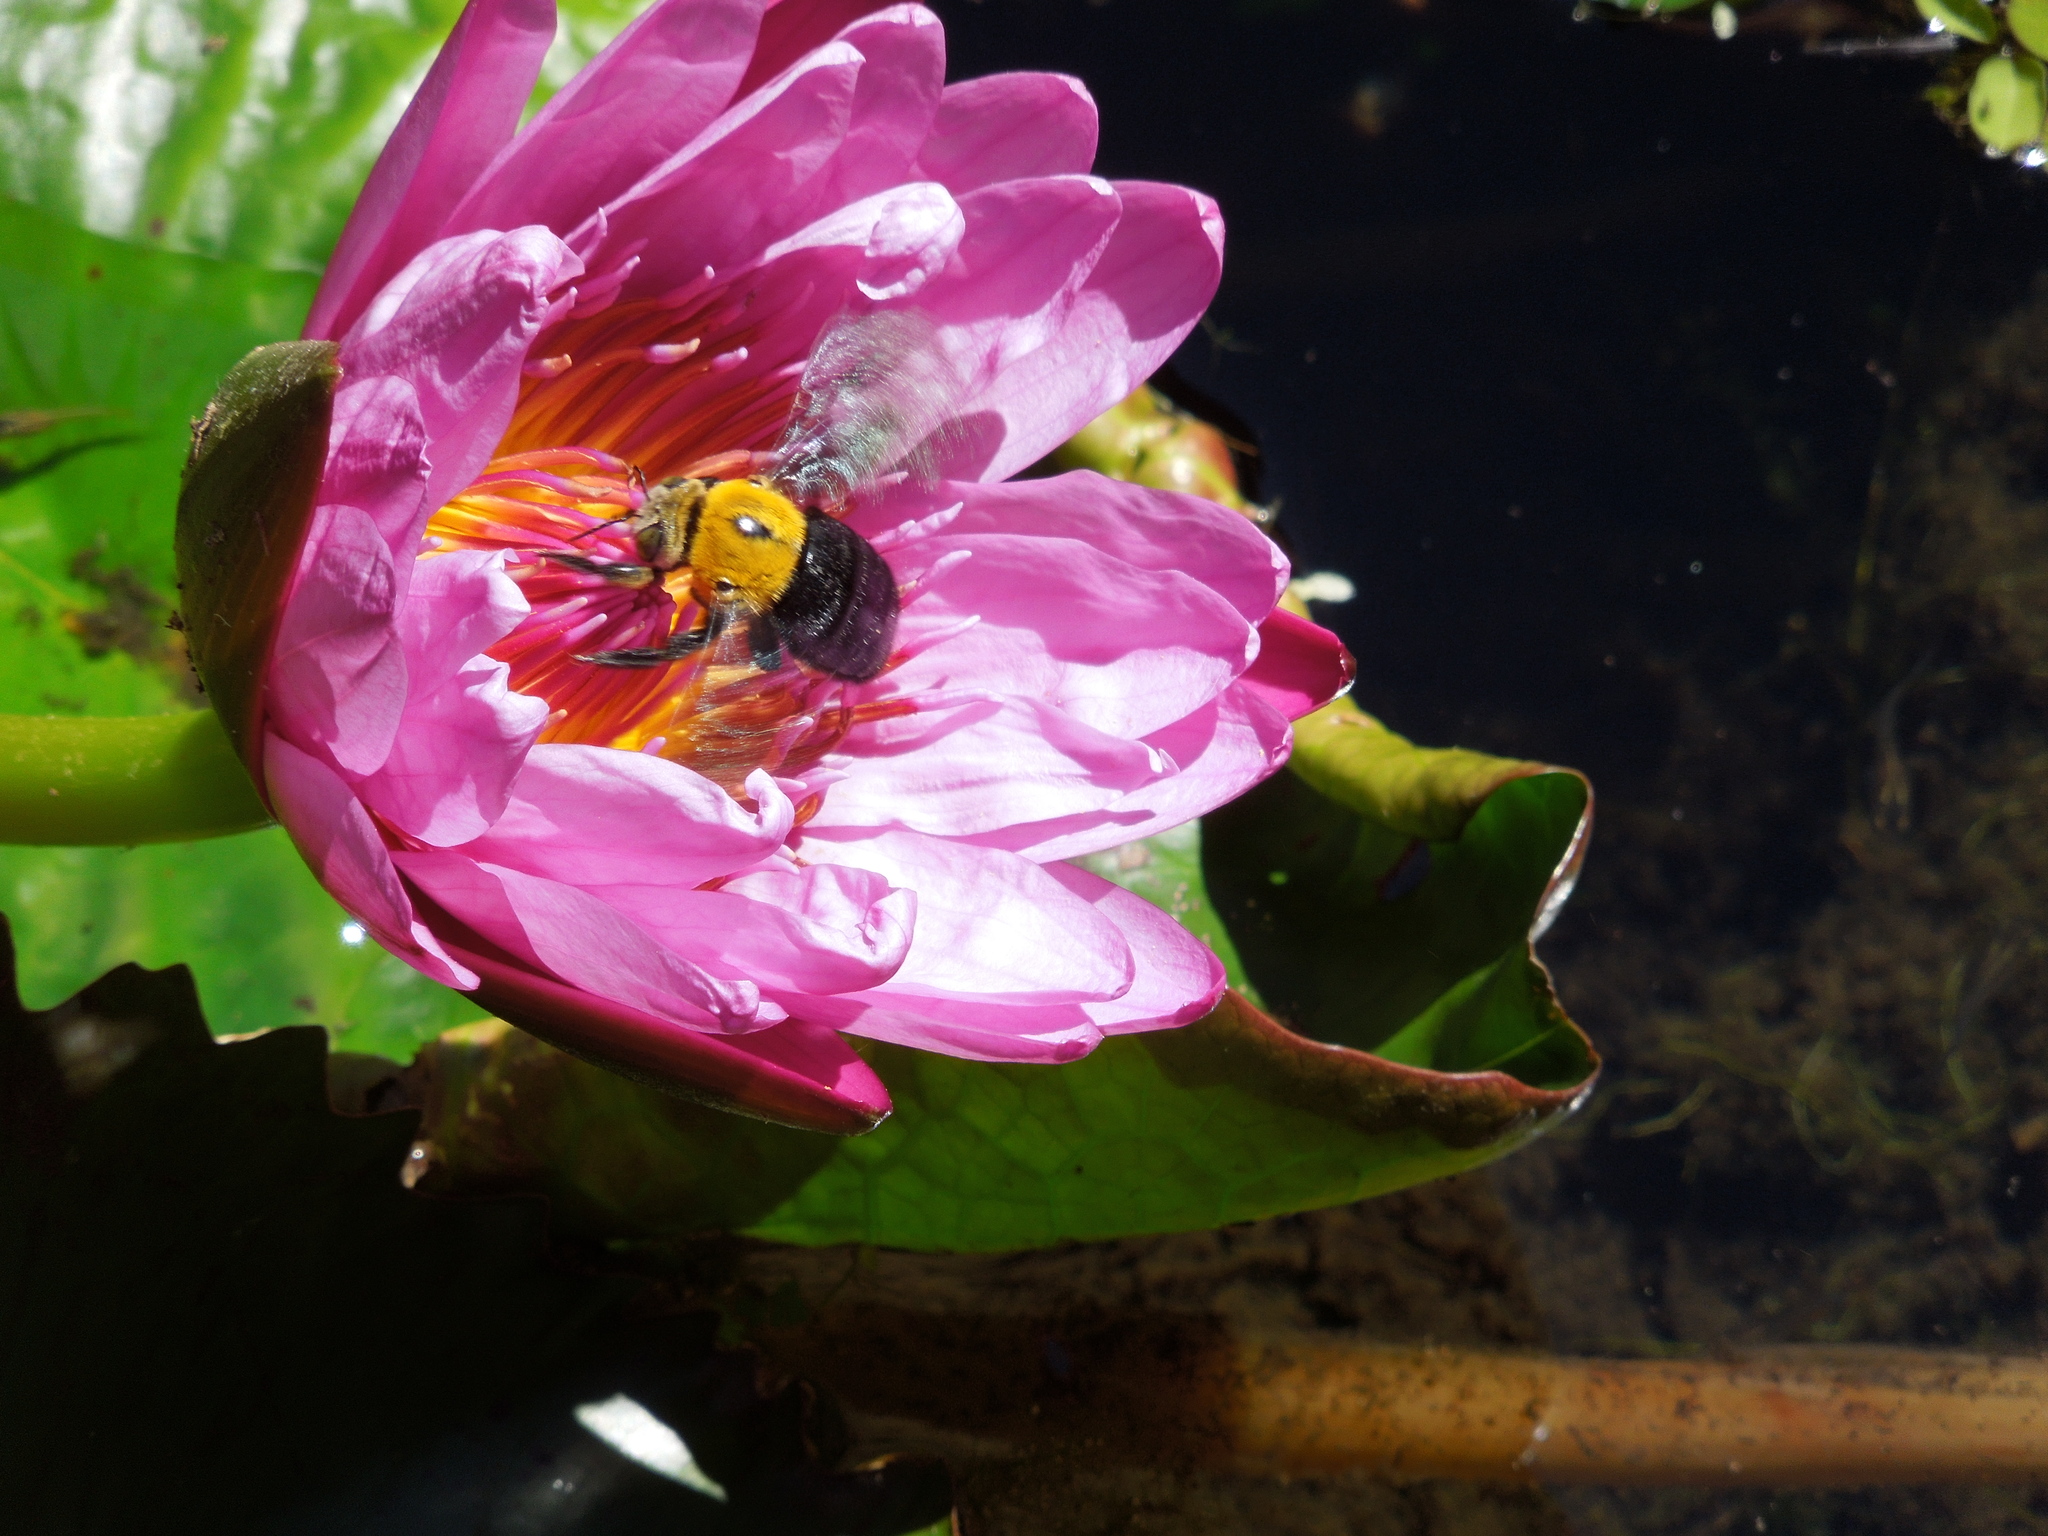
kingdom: Animalia
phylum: Arthropoda
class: Insecta
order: Hymenoptera
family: Apidae
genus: Xylocopa
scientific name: Xylocopa aruana
